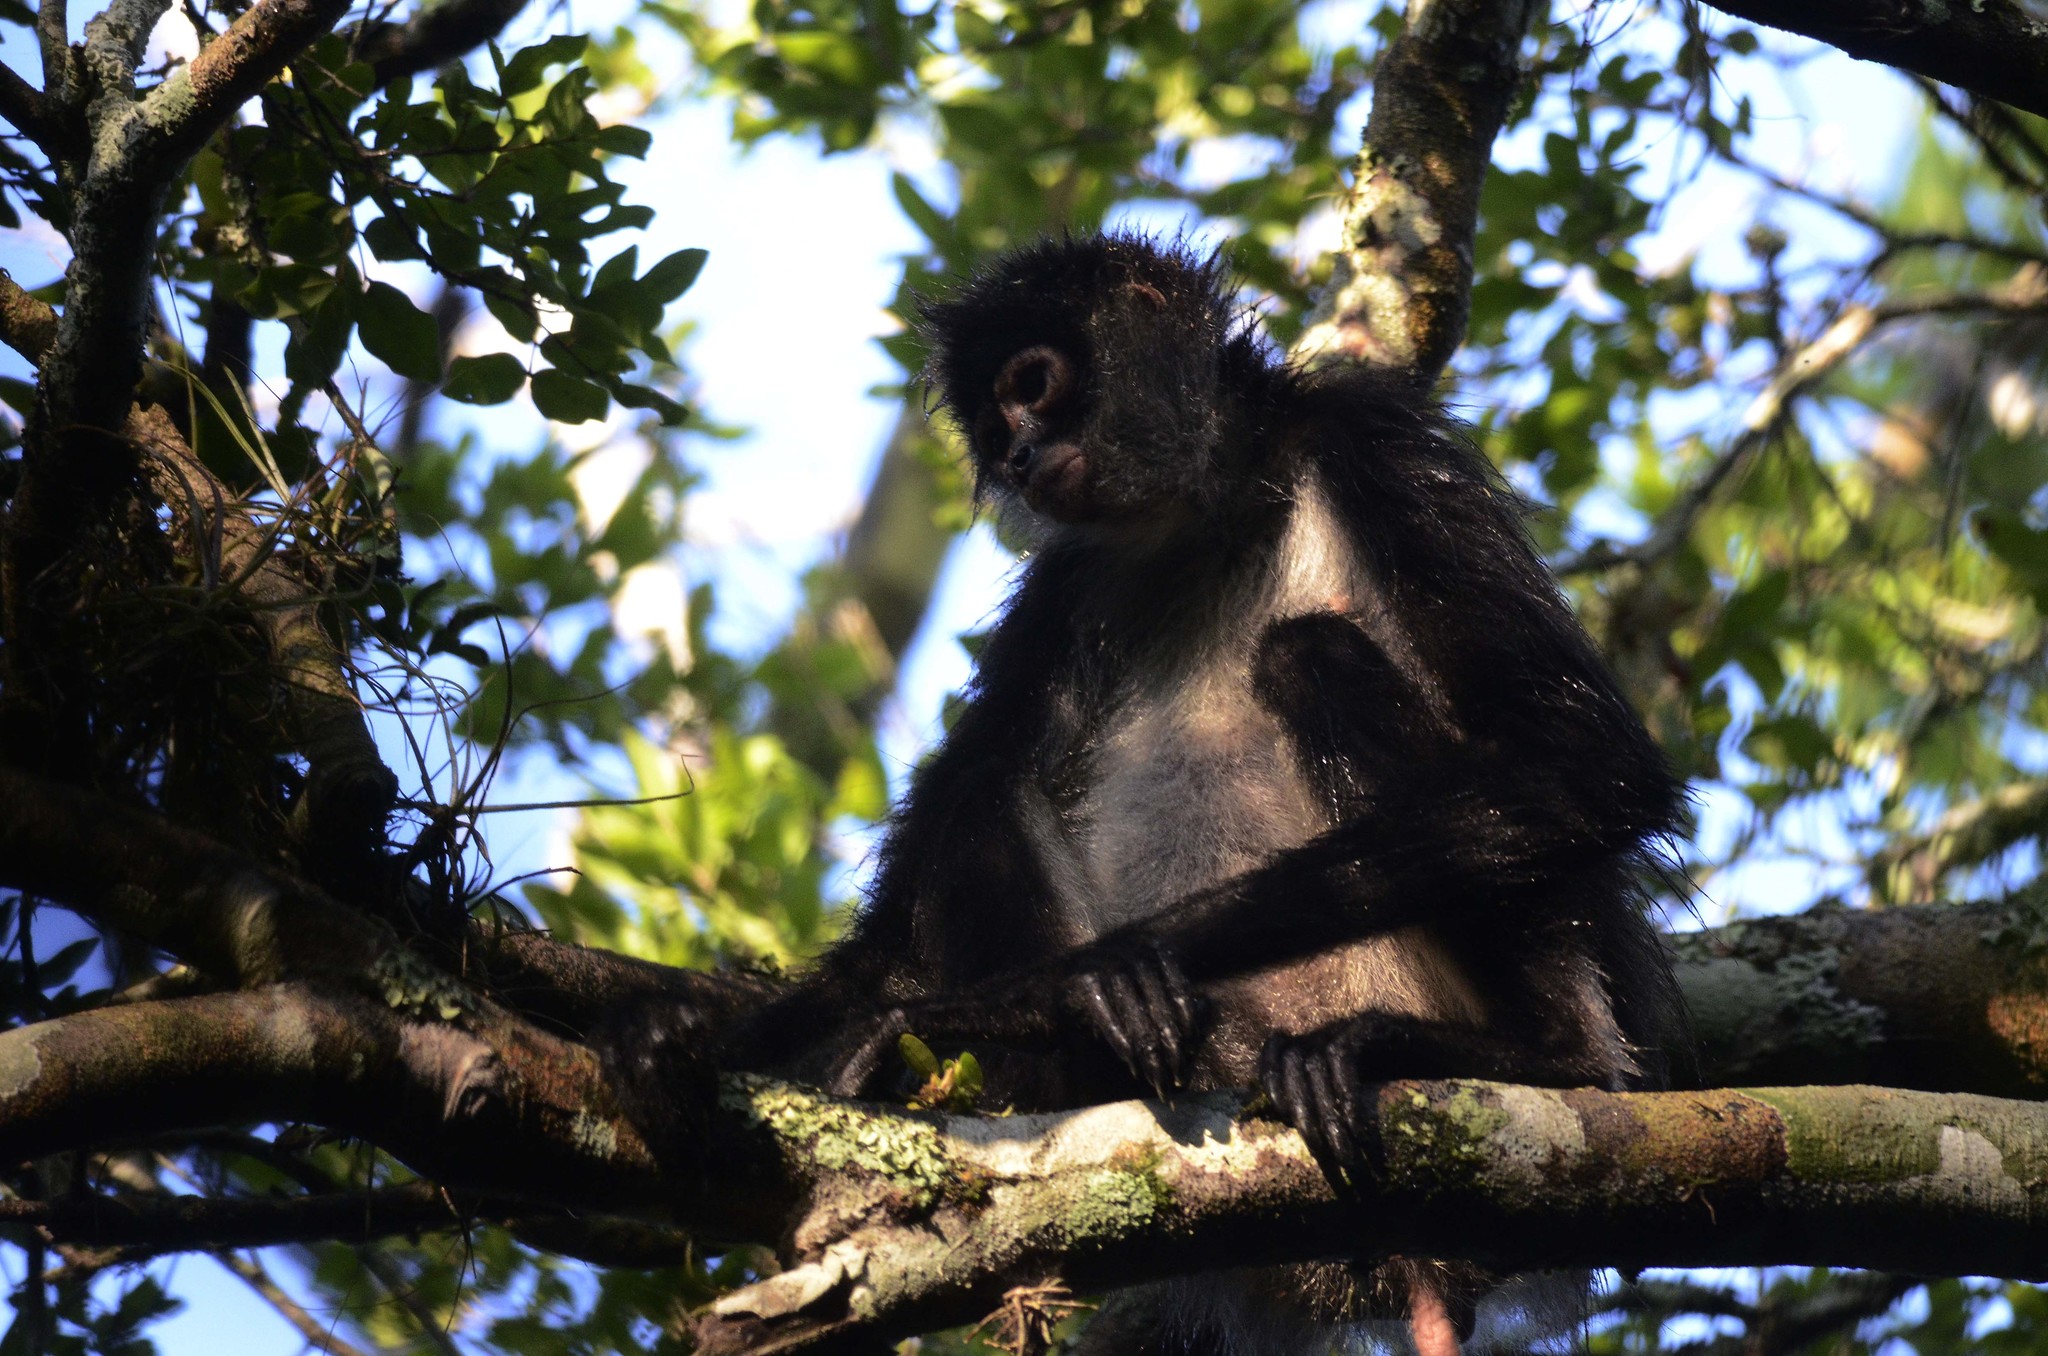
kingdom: Animalia
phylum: Chordata
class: Mammalia
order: Primates
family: Atelidae
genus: Ateles
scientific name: Ateles geoffroyi
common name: Black-handed spider monkey
